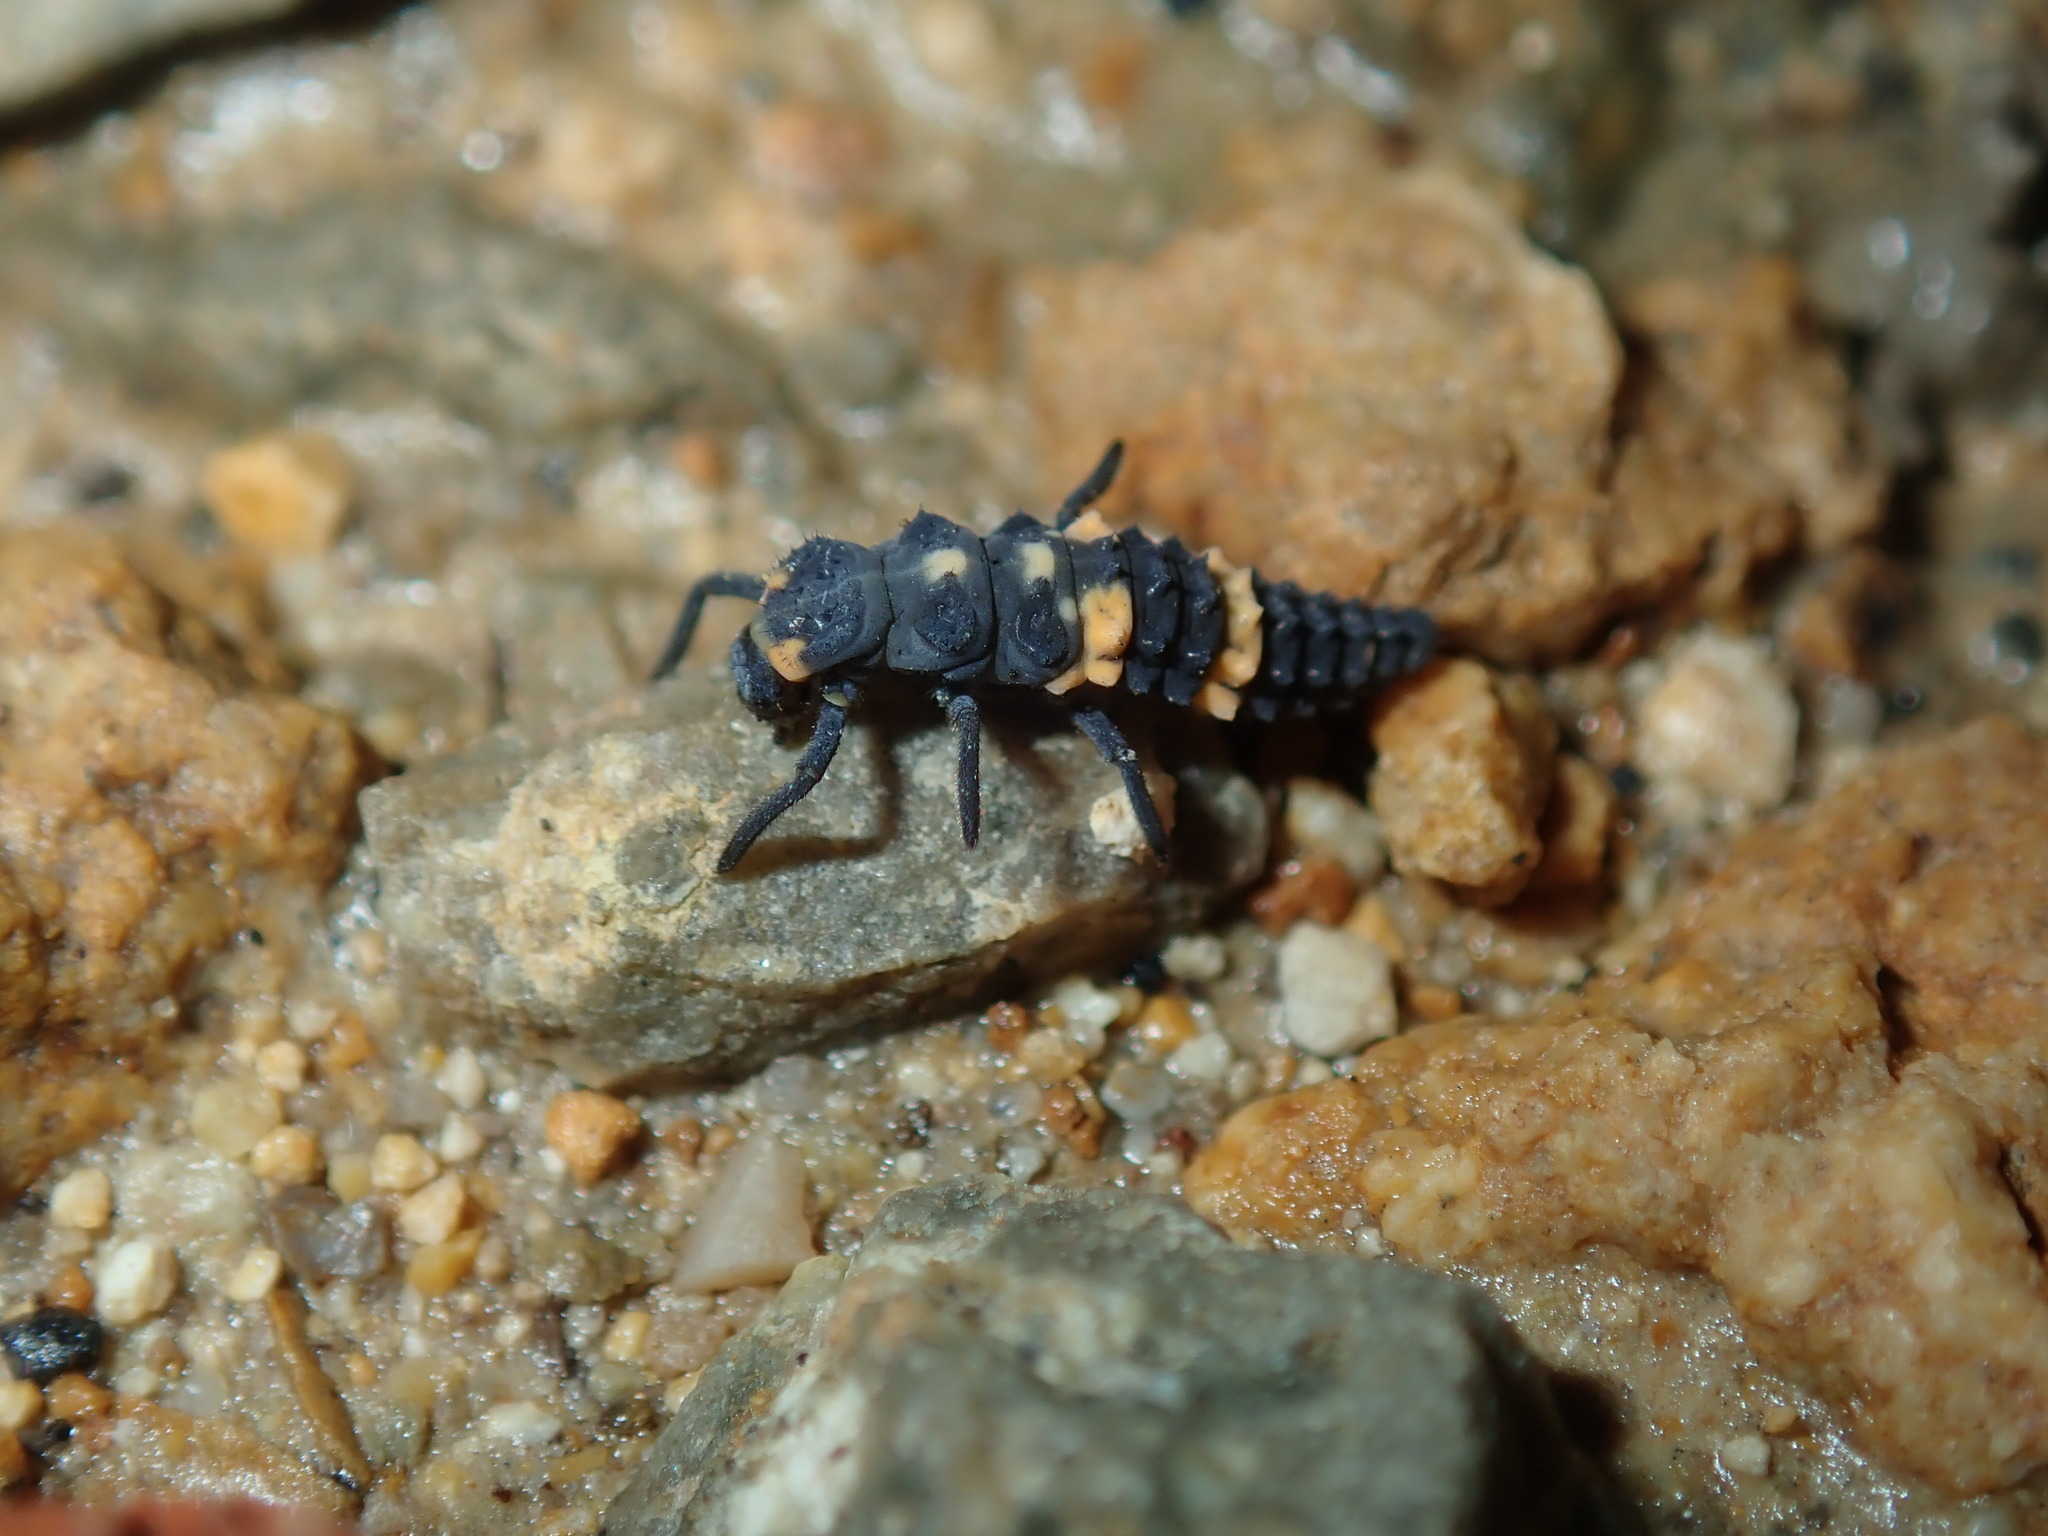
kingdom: Animalia
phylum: Arthropoda
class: Insecta
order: Coleoptera
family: Coccinellidae
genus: Coccinella
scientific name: Coccinella transversalis
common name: Transverse lady beetle
